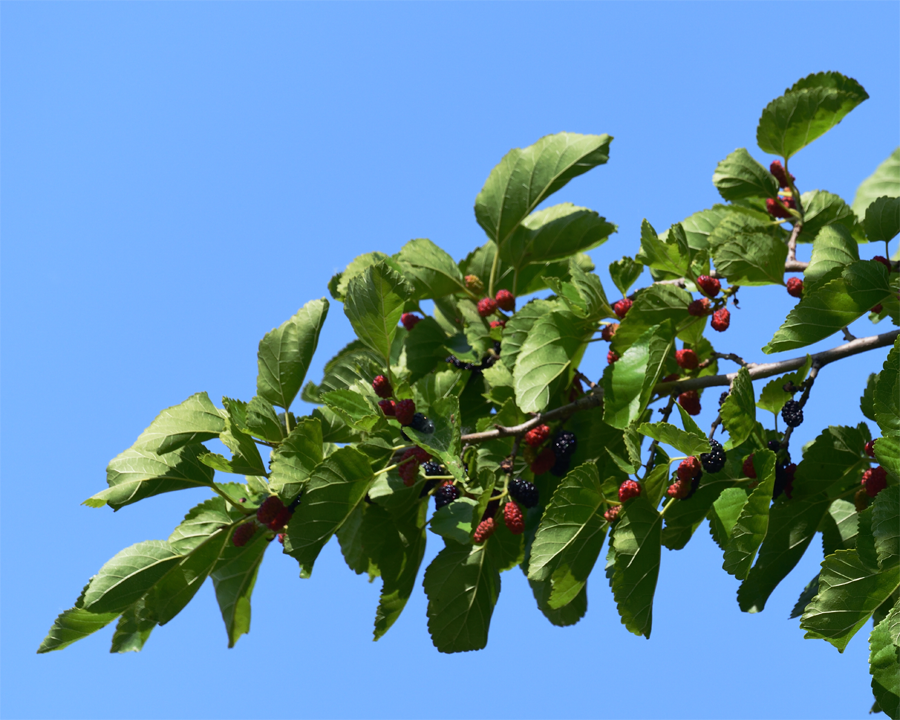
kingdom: Plantae
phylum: Tracheophyta
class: Magnoliopsida
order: Rosales
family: Moraceae
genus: Morus
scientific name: Morus alba
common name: White mulberry
